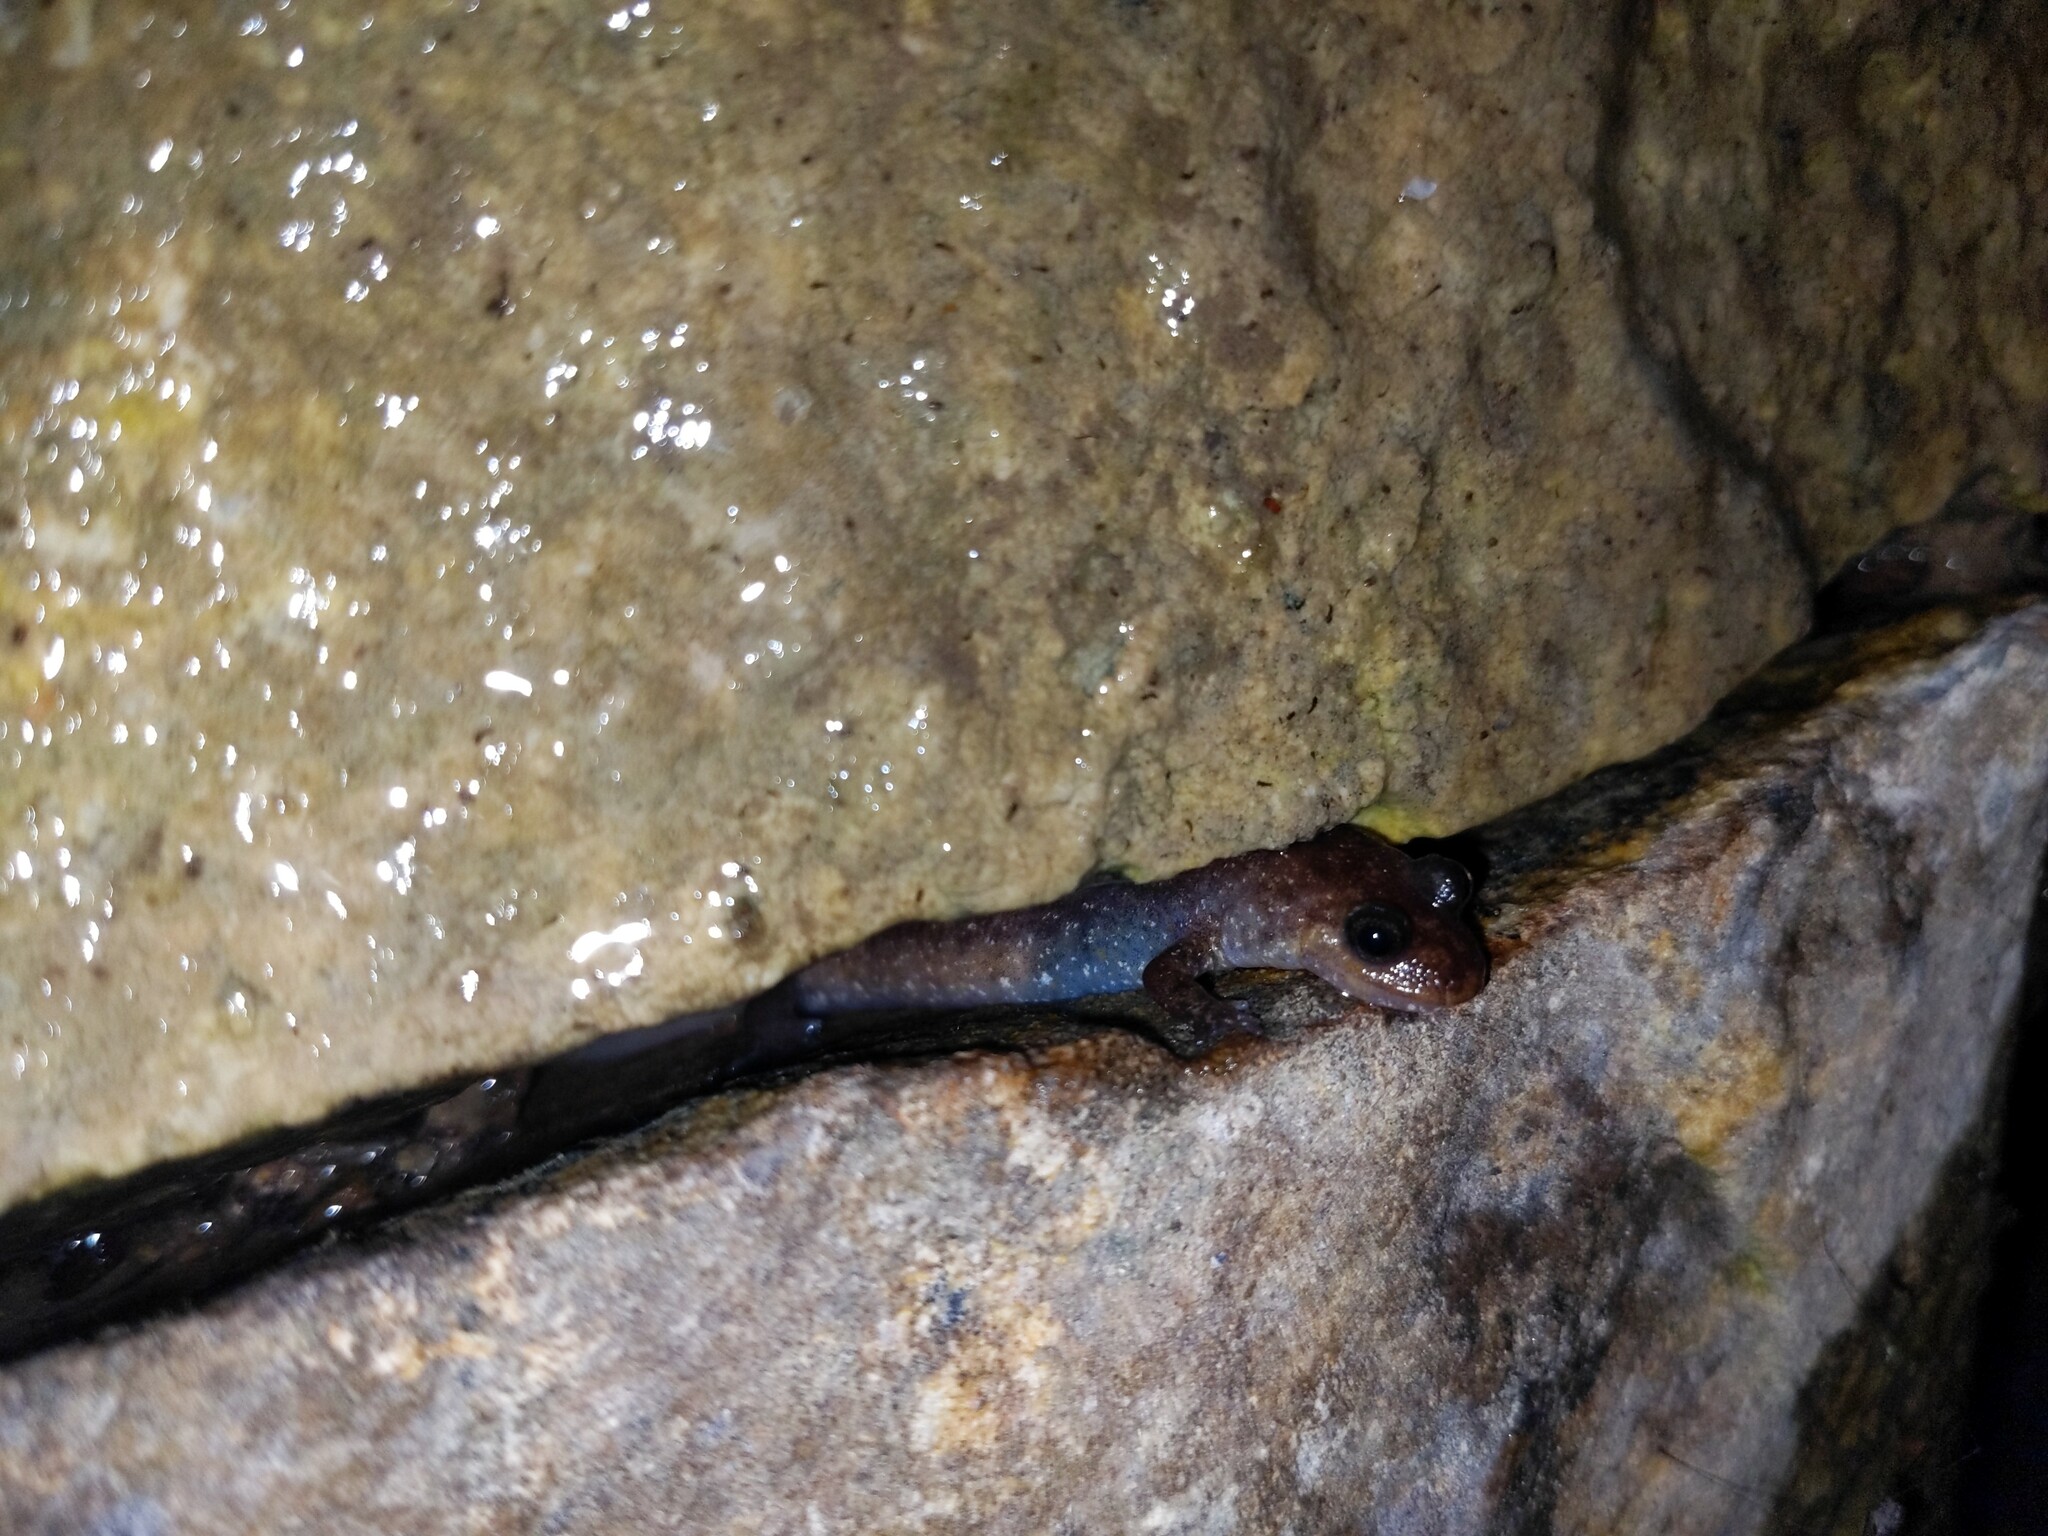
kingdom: Animalia
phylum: Chordata
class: Amphibia
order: Caudata
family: Plethodontidae
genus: Desmognathus
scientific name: Desmognathus monticola
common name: Seal salamander
